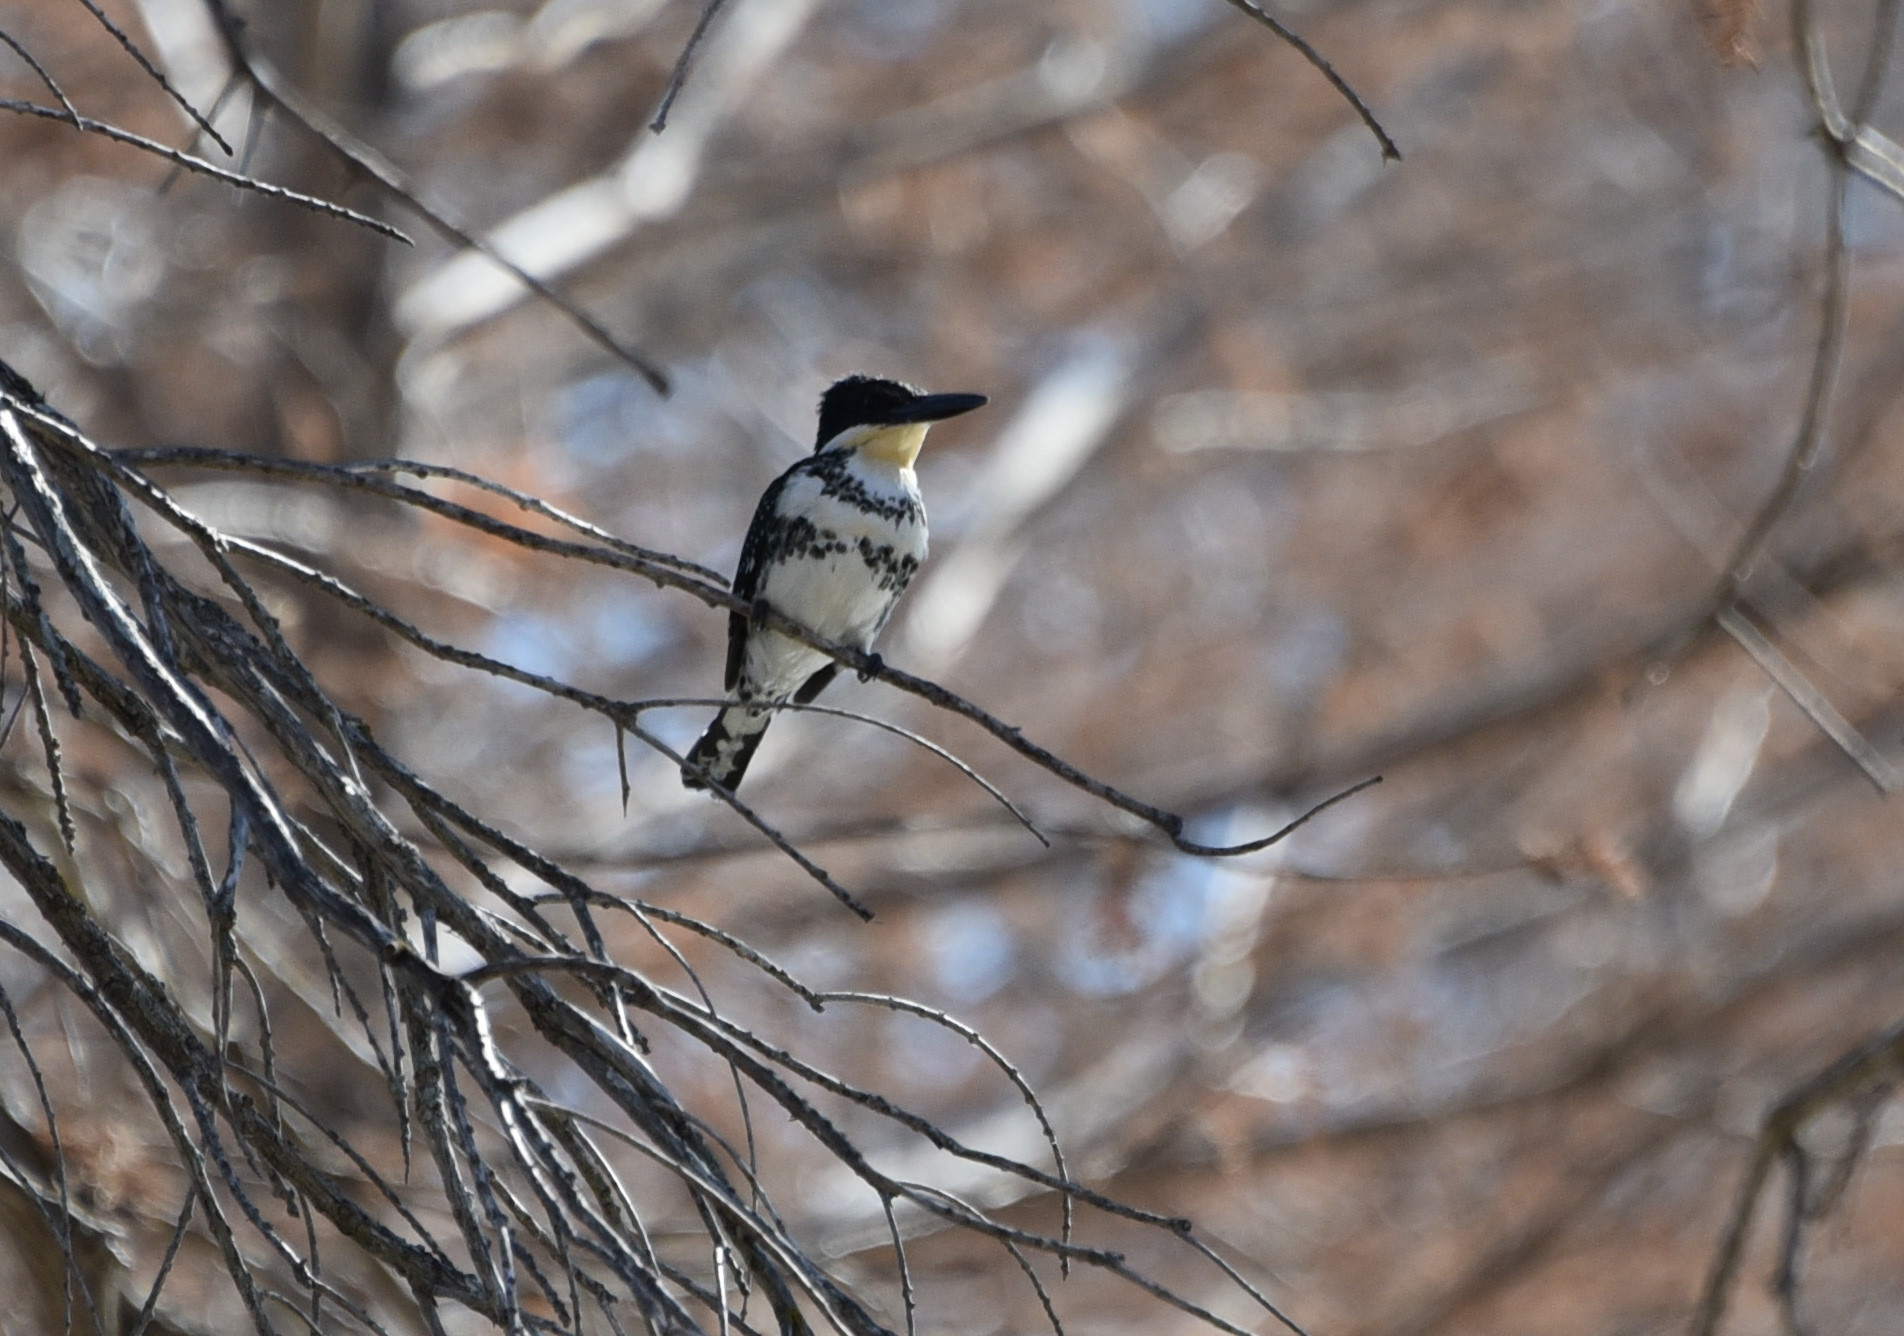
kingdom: Animalia
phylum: Chordata
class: Aves
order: Coraciiformes
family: Alcedinidae
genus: Chloroceryle
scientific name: Chloroceryle americana
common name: Green kingfisher
